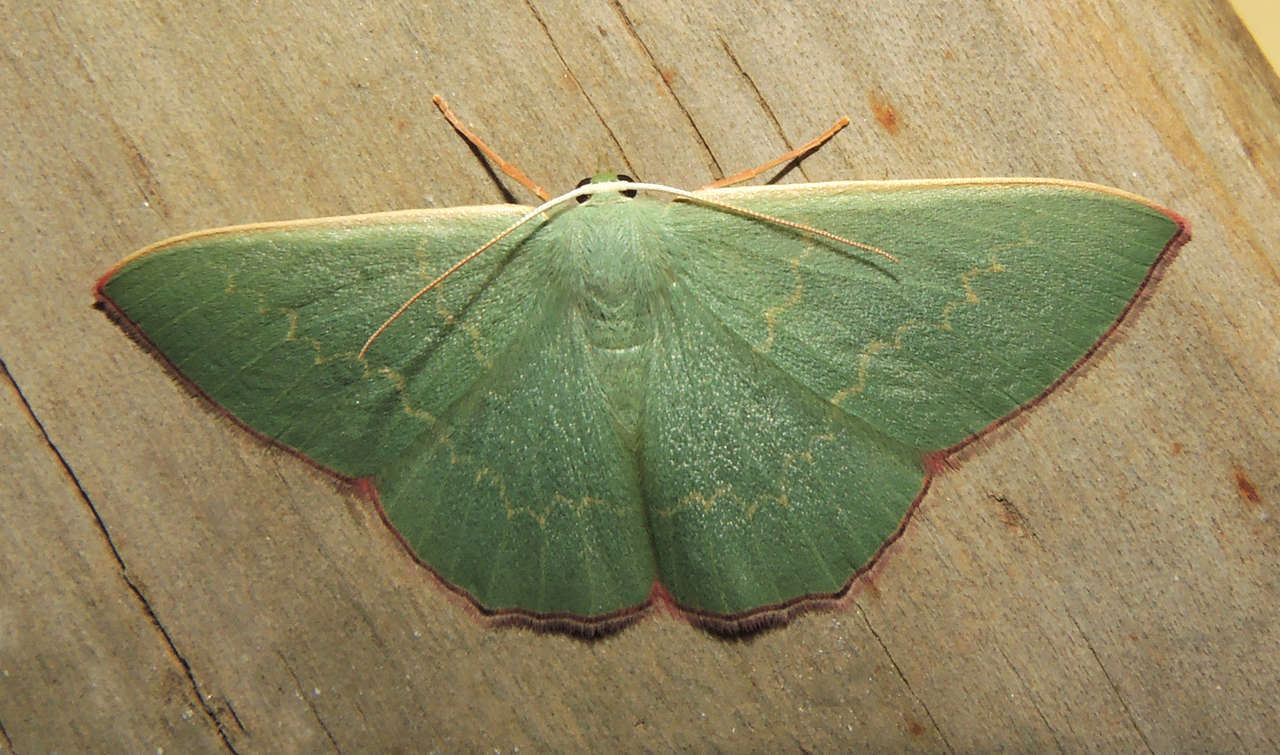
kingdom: Animalia
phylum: Arthropoda
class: Insecta
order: Lepidoptera
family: Geometridae
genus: Prasinocyma
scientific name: Prasinocyma semicrocea
